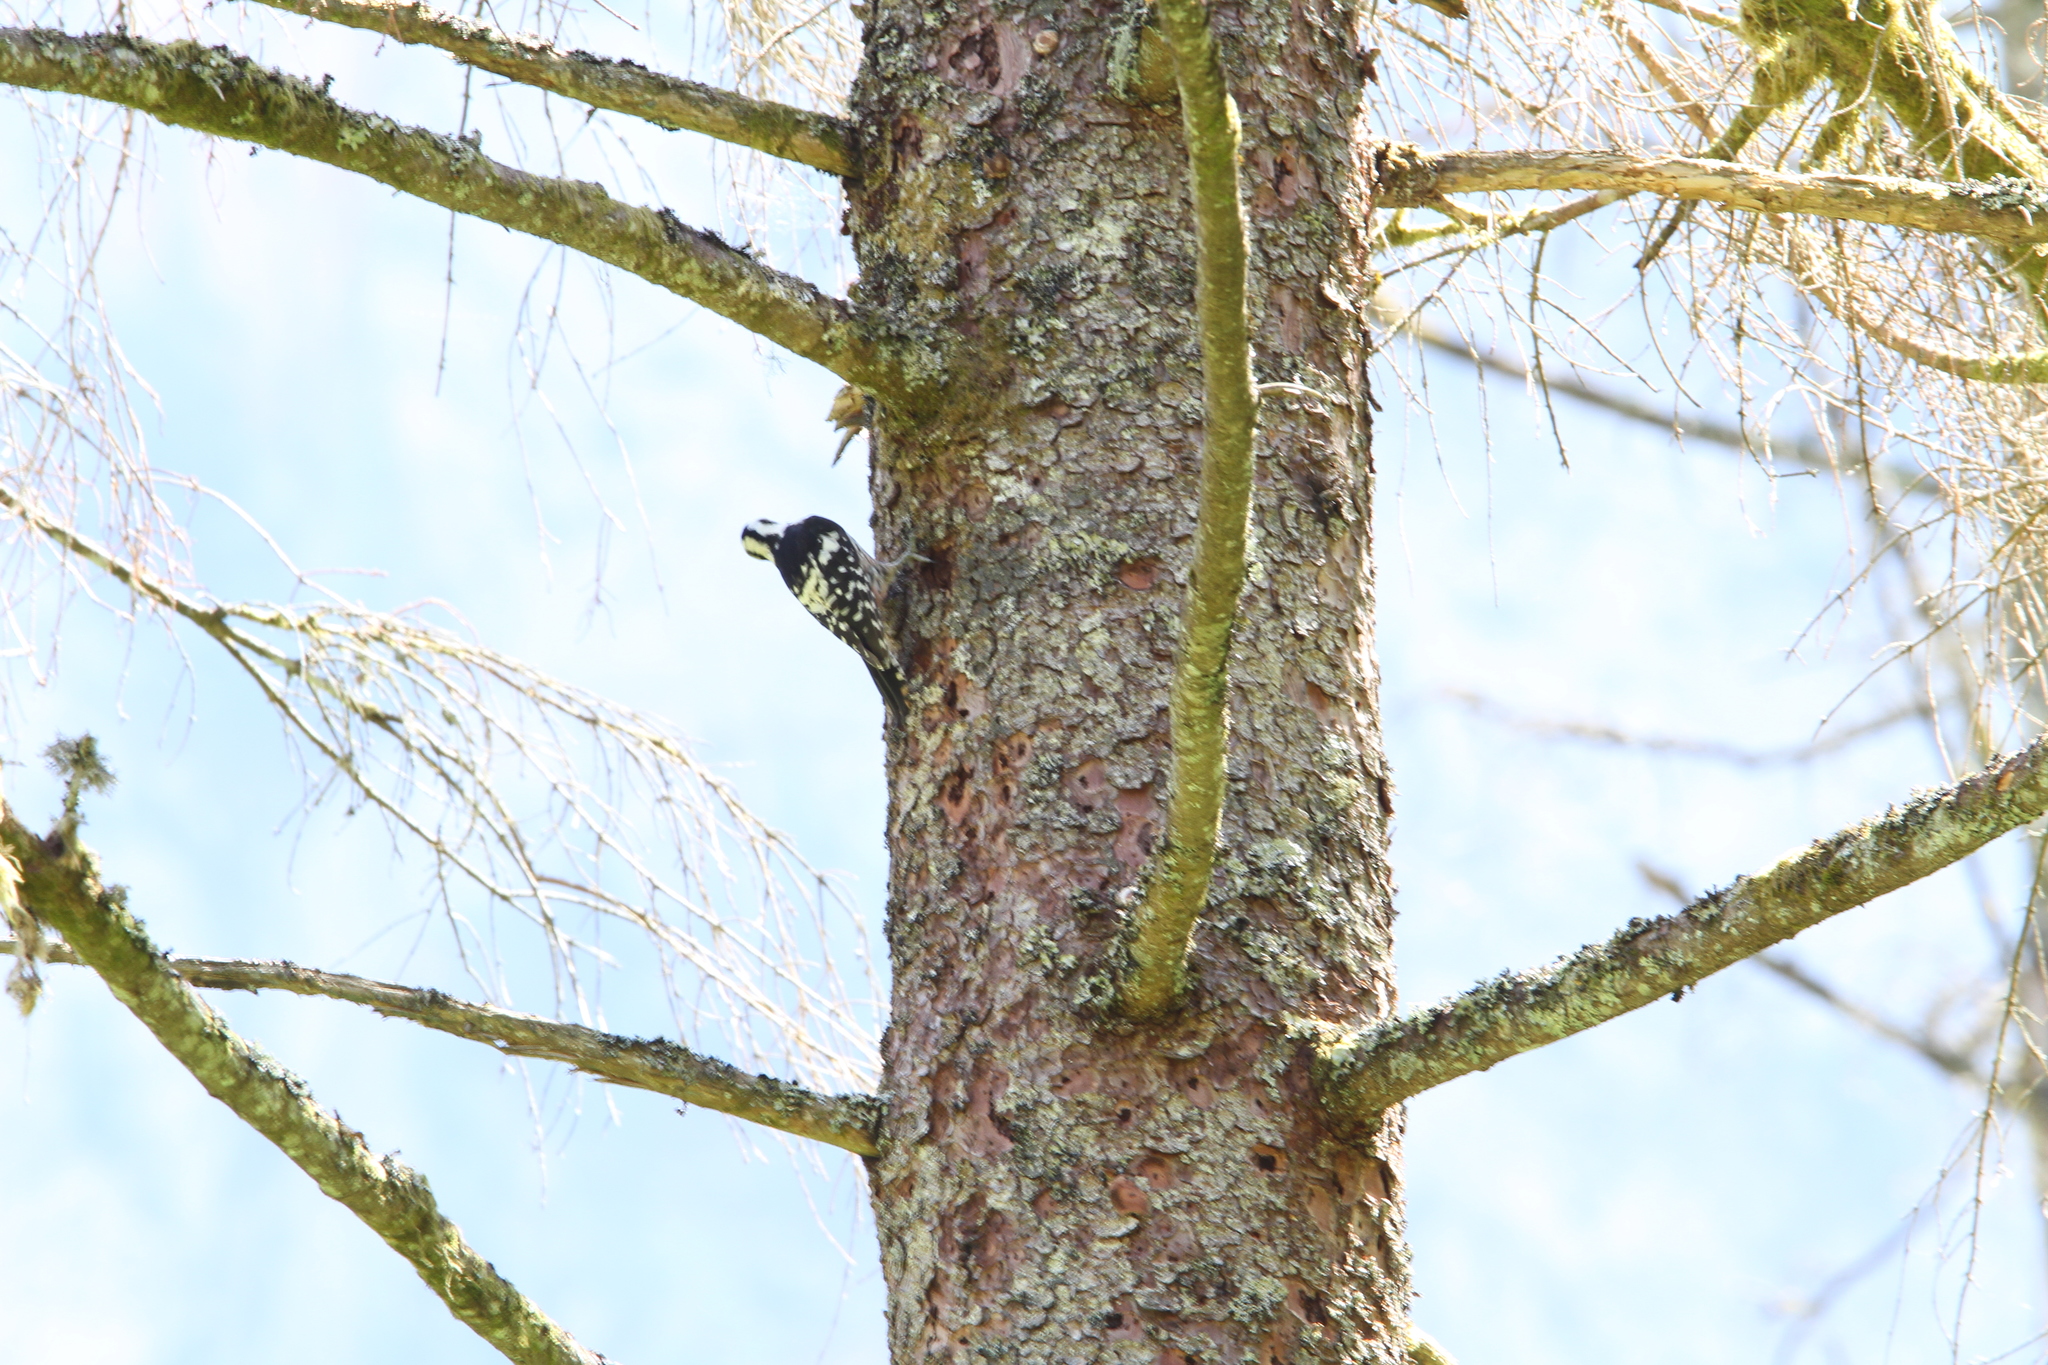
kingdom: Animalia
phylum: Chordata
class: Aves
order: Piciformes
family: Picidae
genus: Dendrocopos
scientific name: Dendrocopos leucotos
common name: White-backed woodpecker
